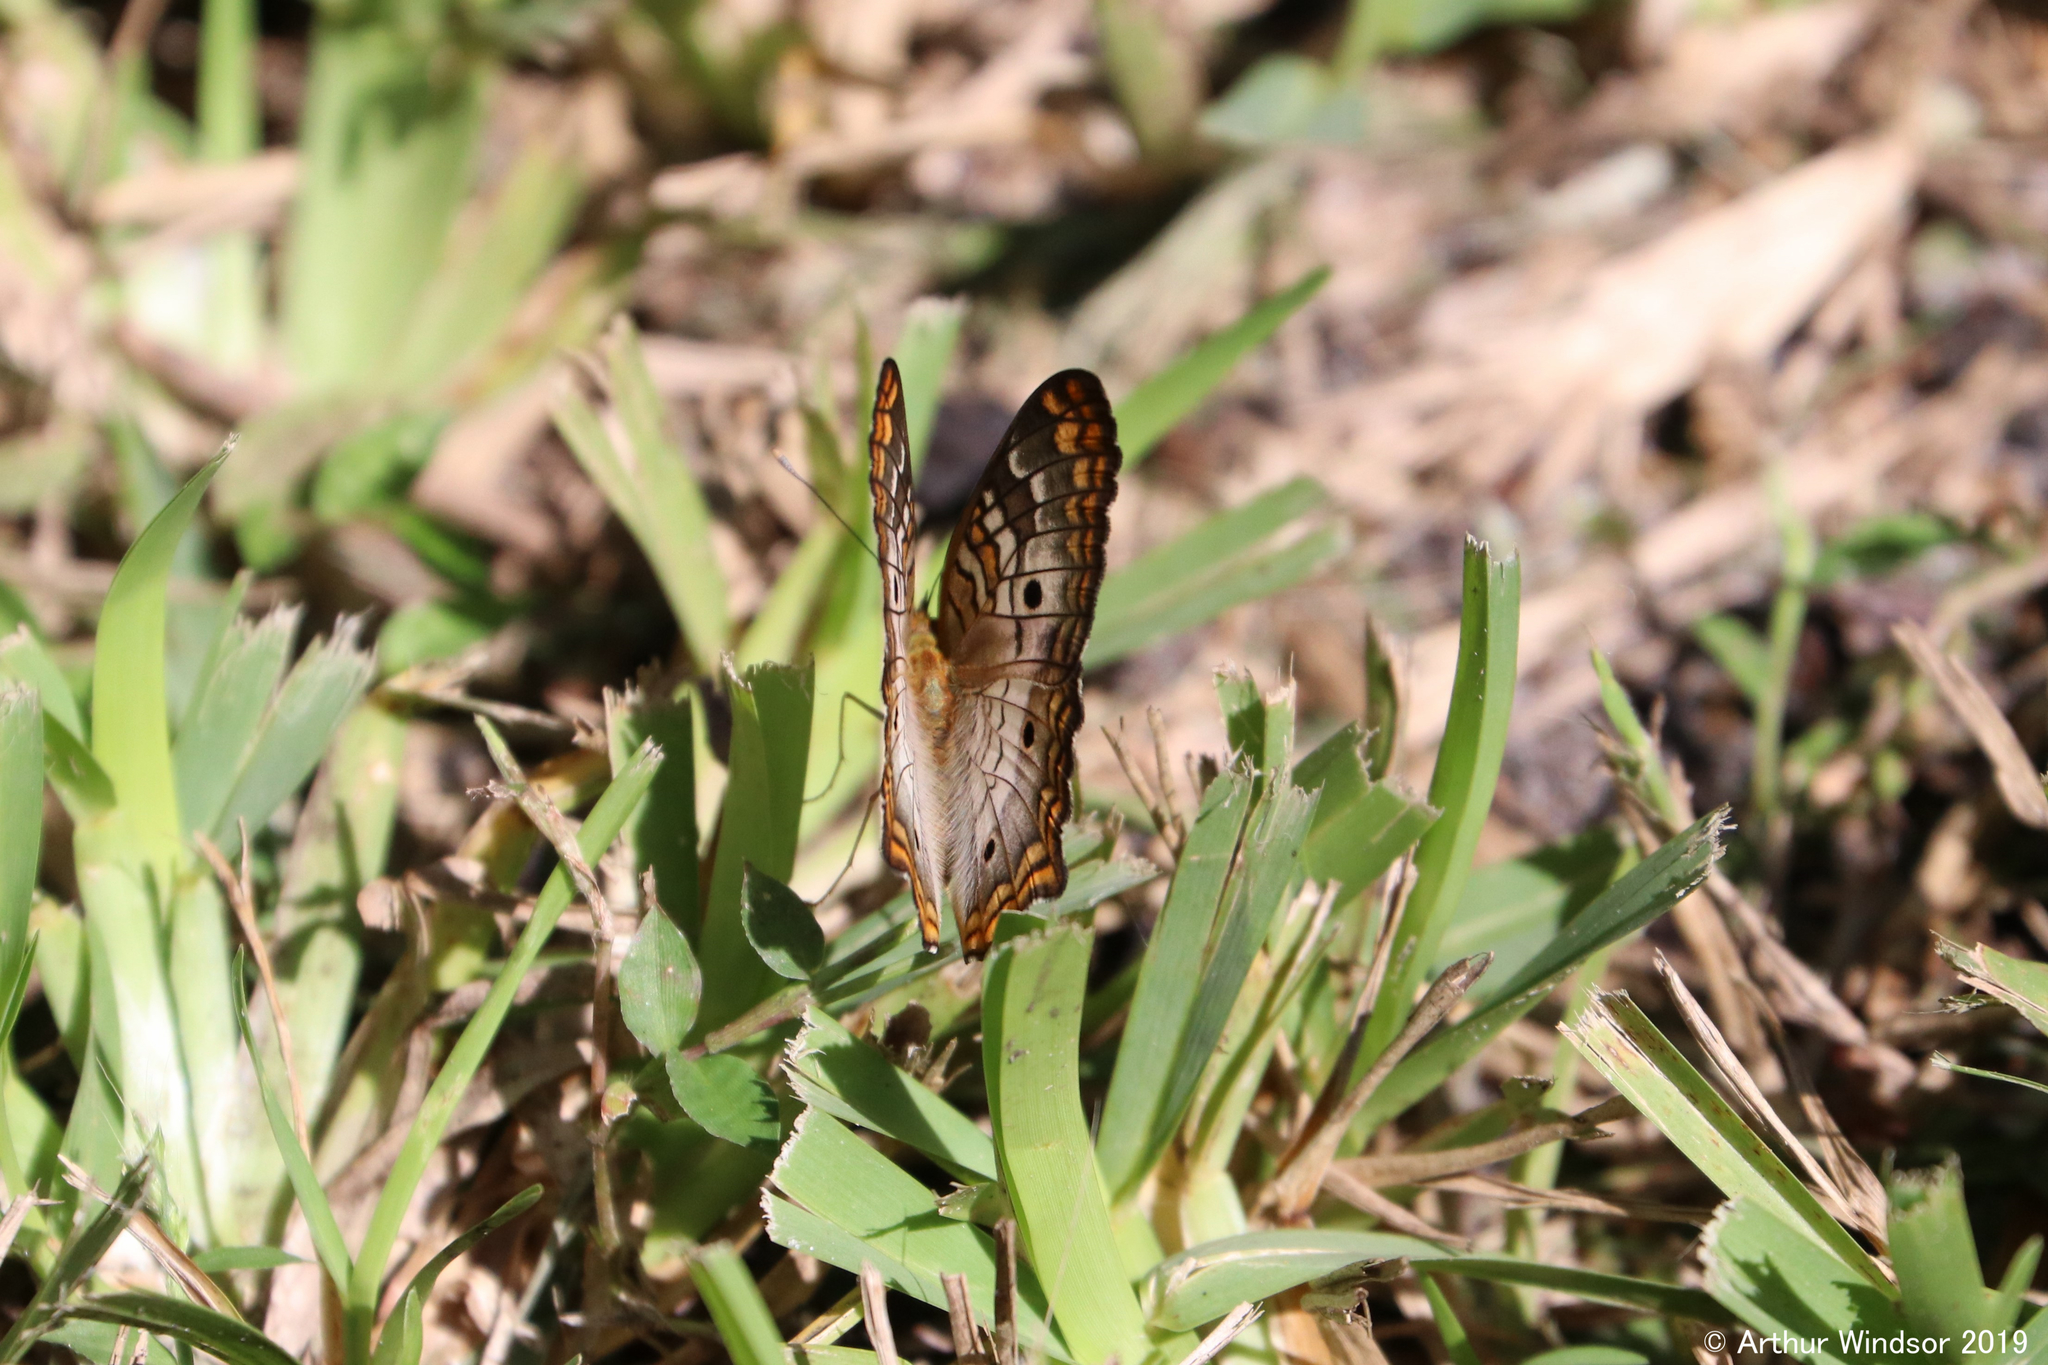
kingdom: Animalia
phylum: Arthropoda
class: Insecta
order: Lepidoptera
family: Nymphalidae
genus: Anartia
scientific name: Anartia jatrophae
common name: White peacock
